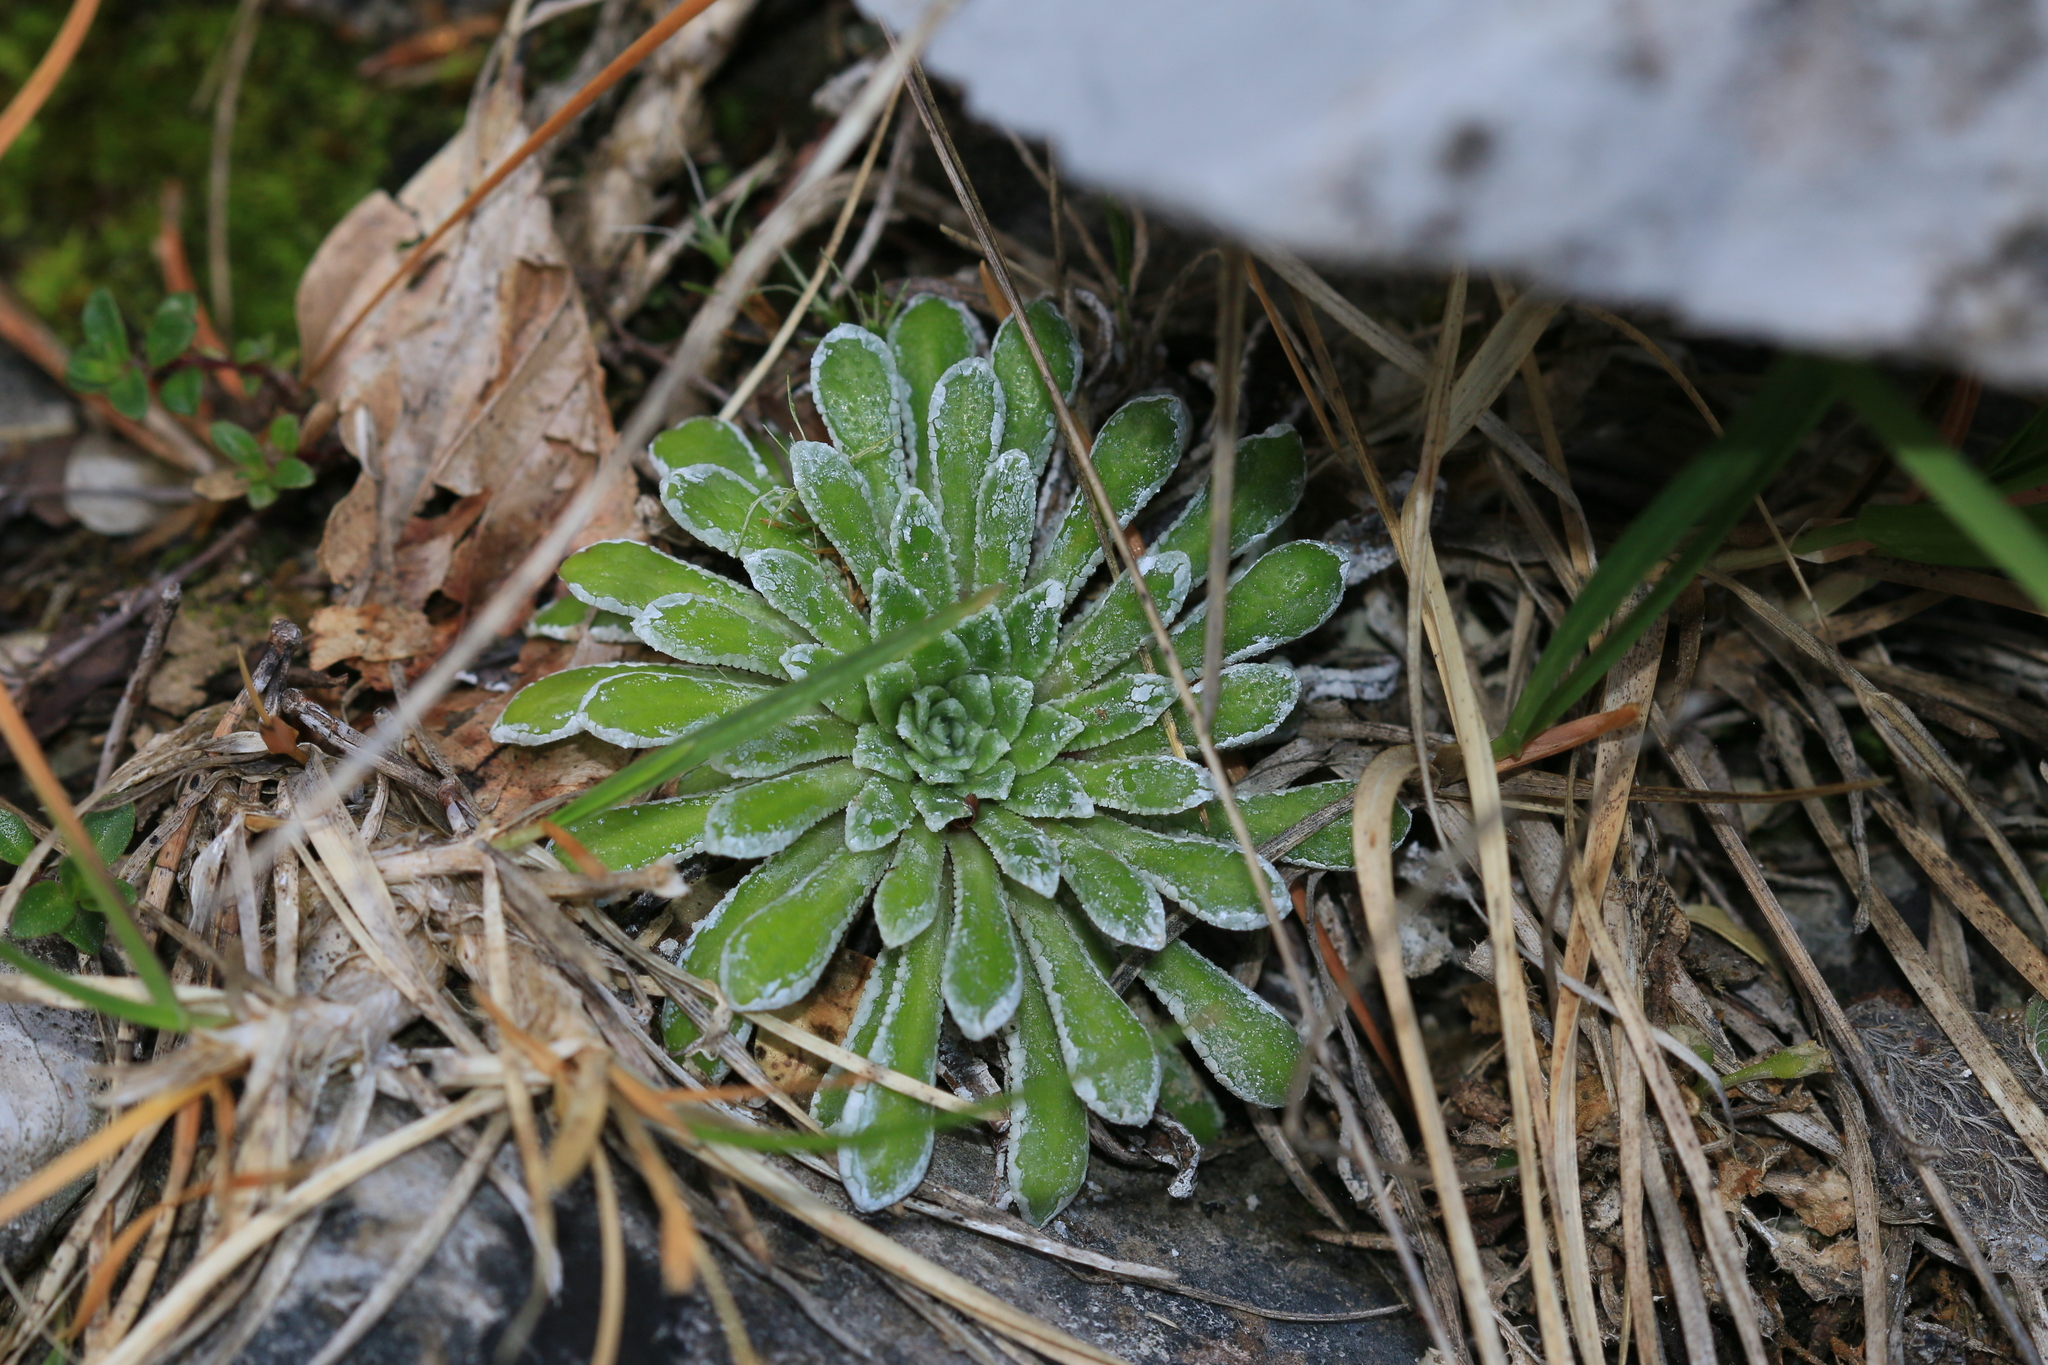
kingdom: Plantae
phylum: Tracheophyta
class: Magnoliopsida
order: Saxifragales
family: Saxifragaceae
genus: Saxifraga
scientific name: Saxifraga longifolia
